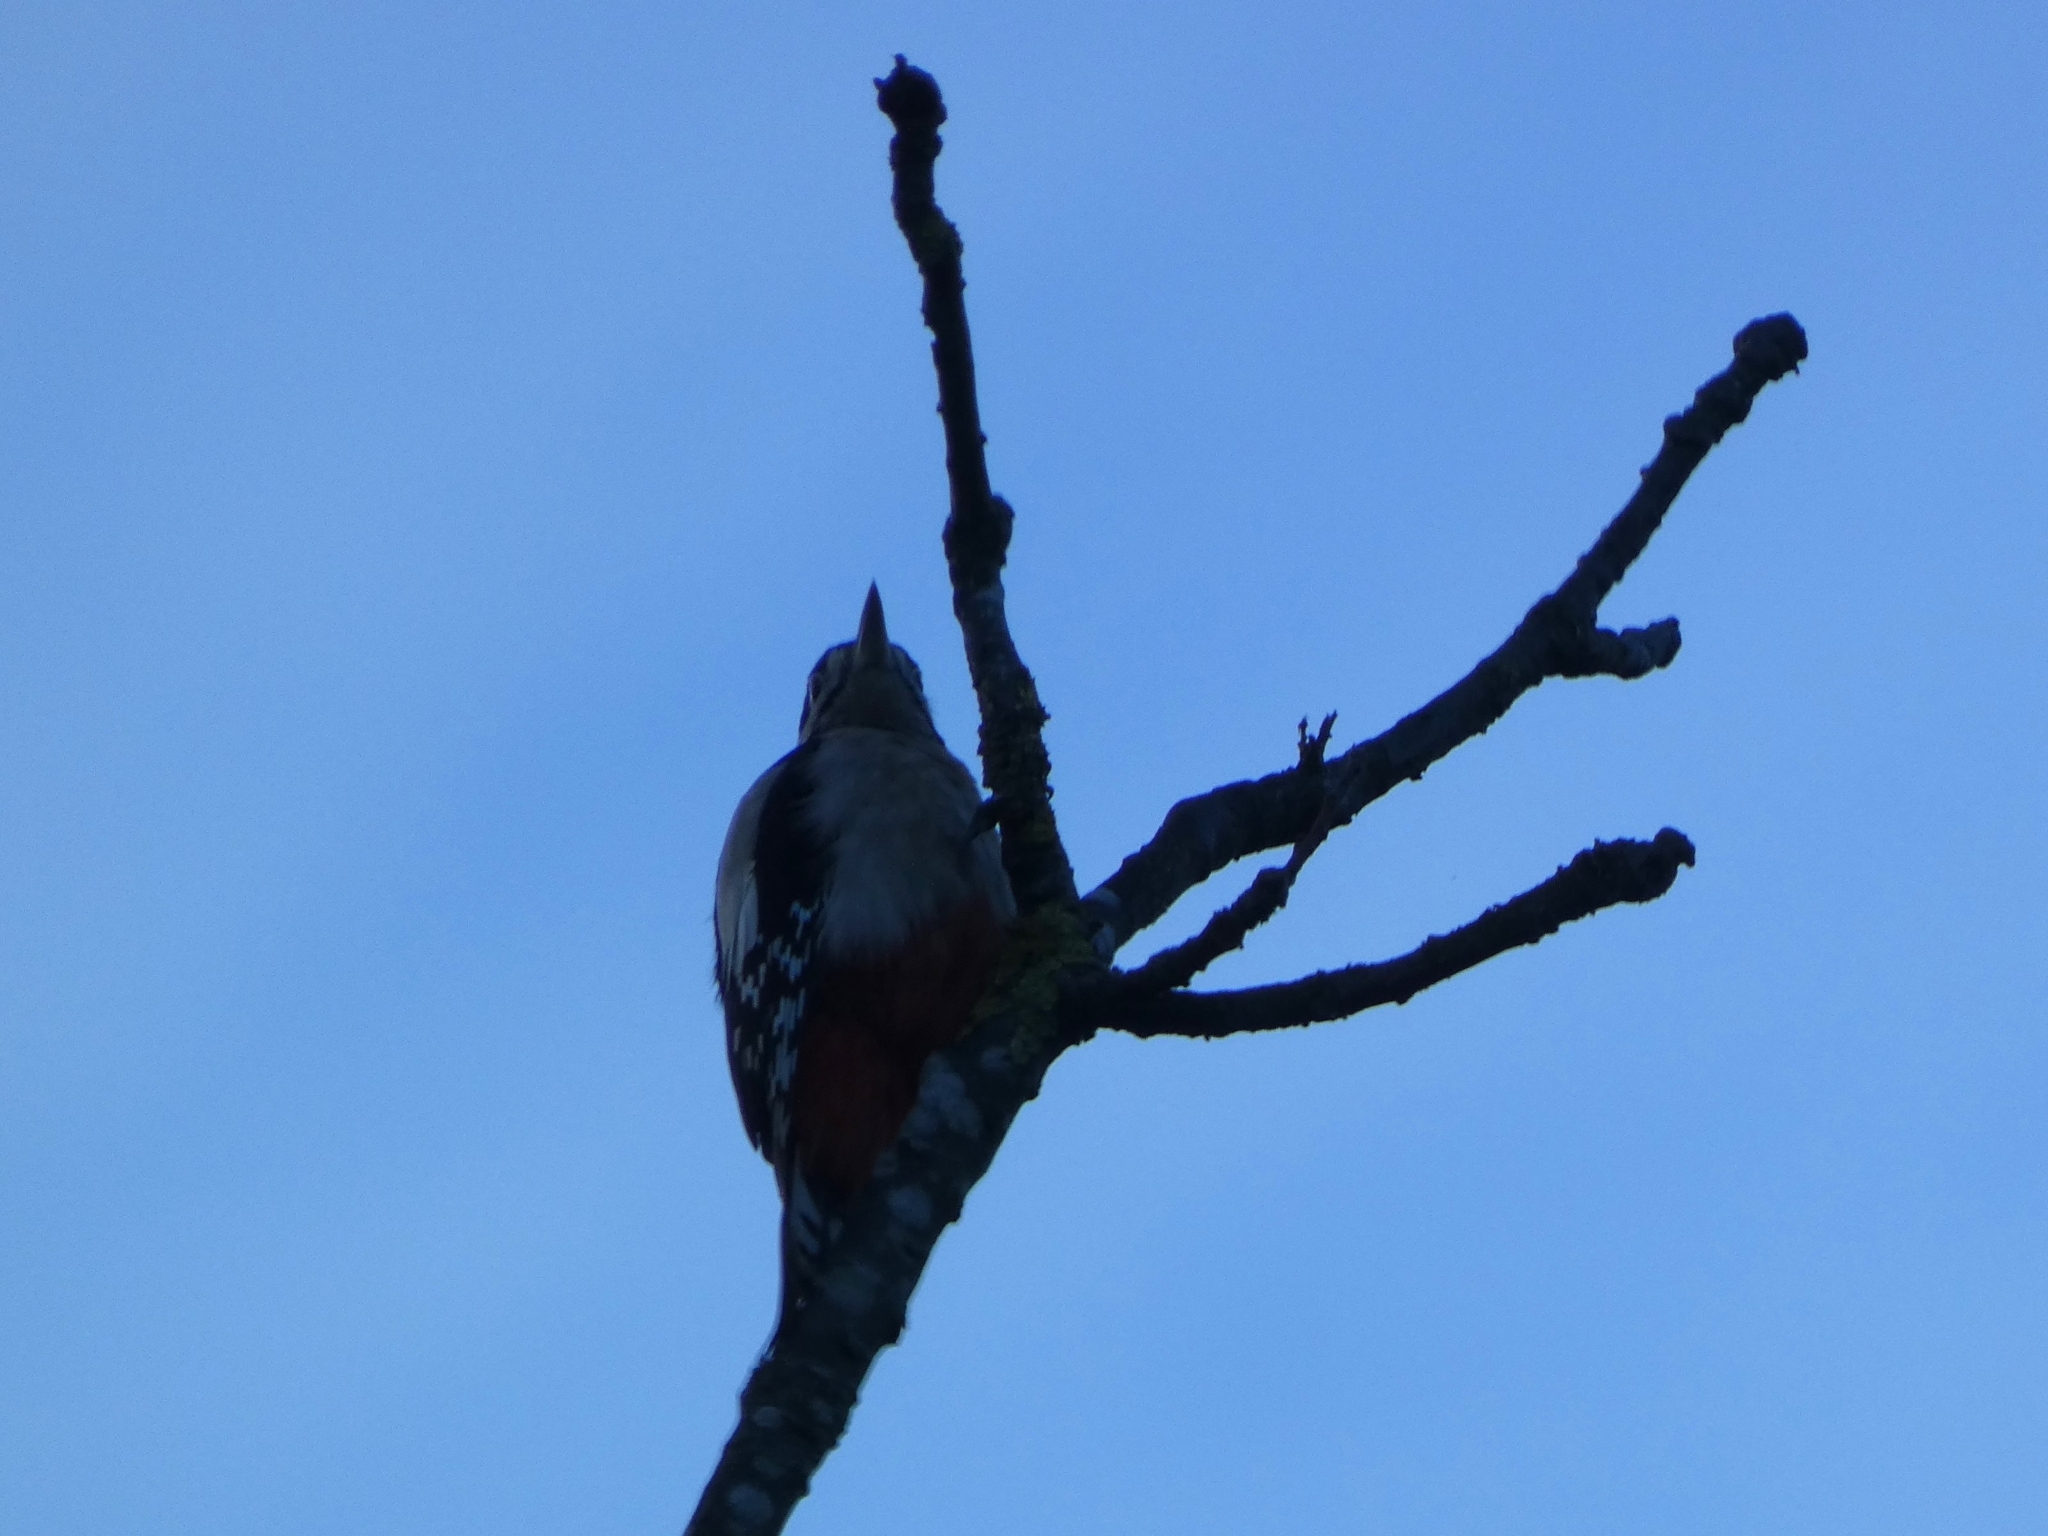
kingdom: Animalia
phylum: Chordata
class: Aves
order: Piciformes
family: Picidae
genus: Dendrocopos
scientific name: Dendrocopos major
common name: Great spotted woodpecker
